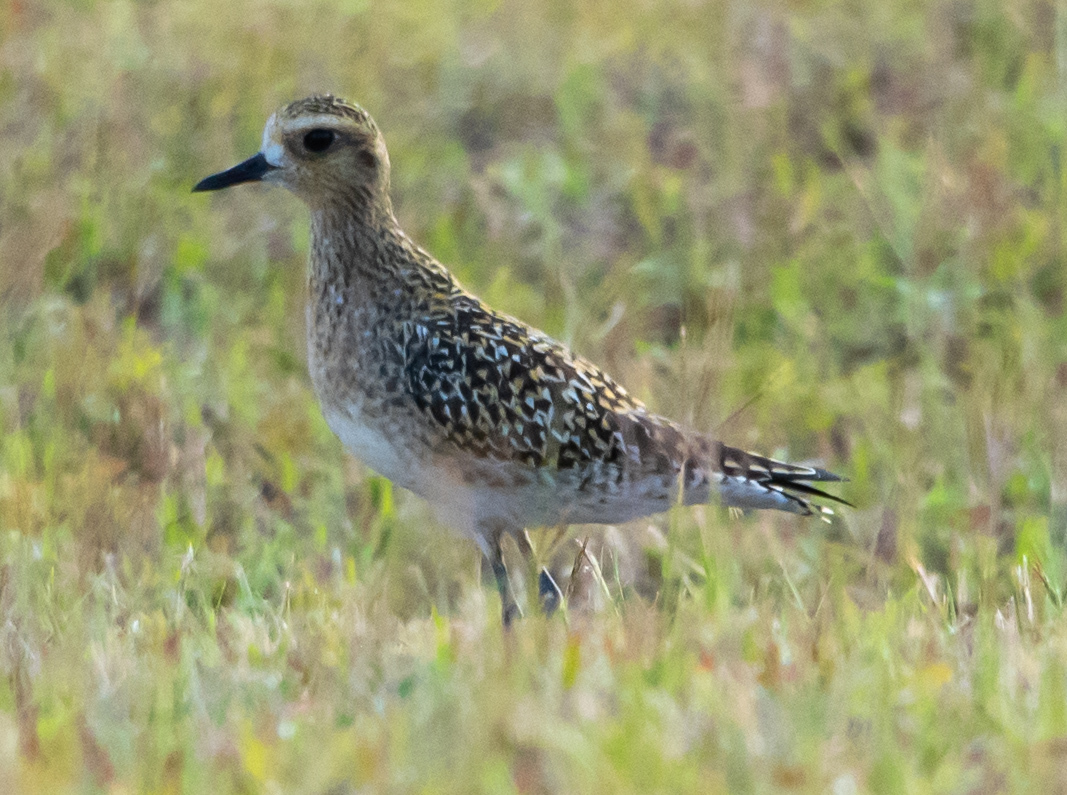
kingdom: Animalia
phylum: Chordata
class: Aves
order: Charadriiformes
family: Charadriidae
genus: Pluvialis
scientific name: Pluvialis fulva
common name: Pacific golden plover
